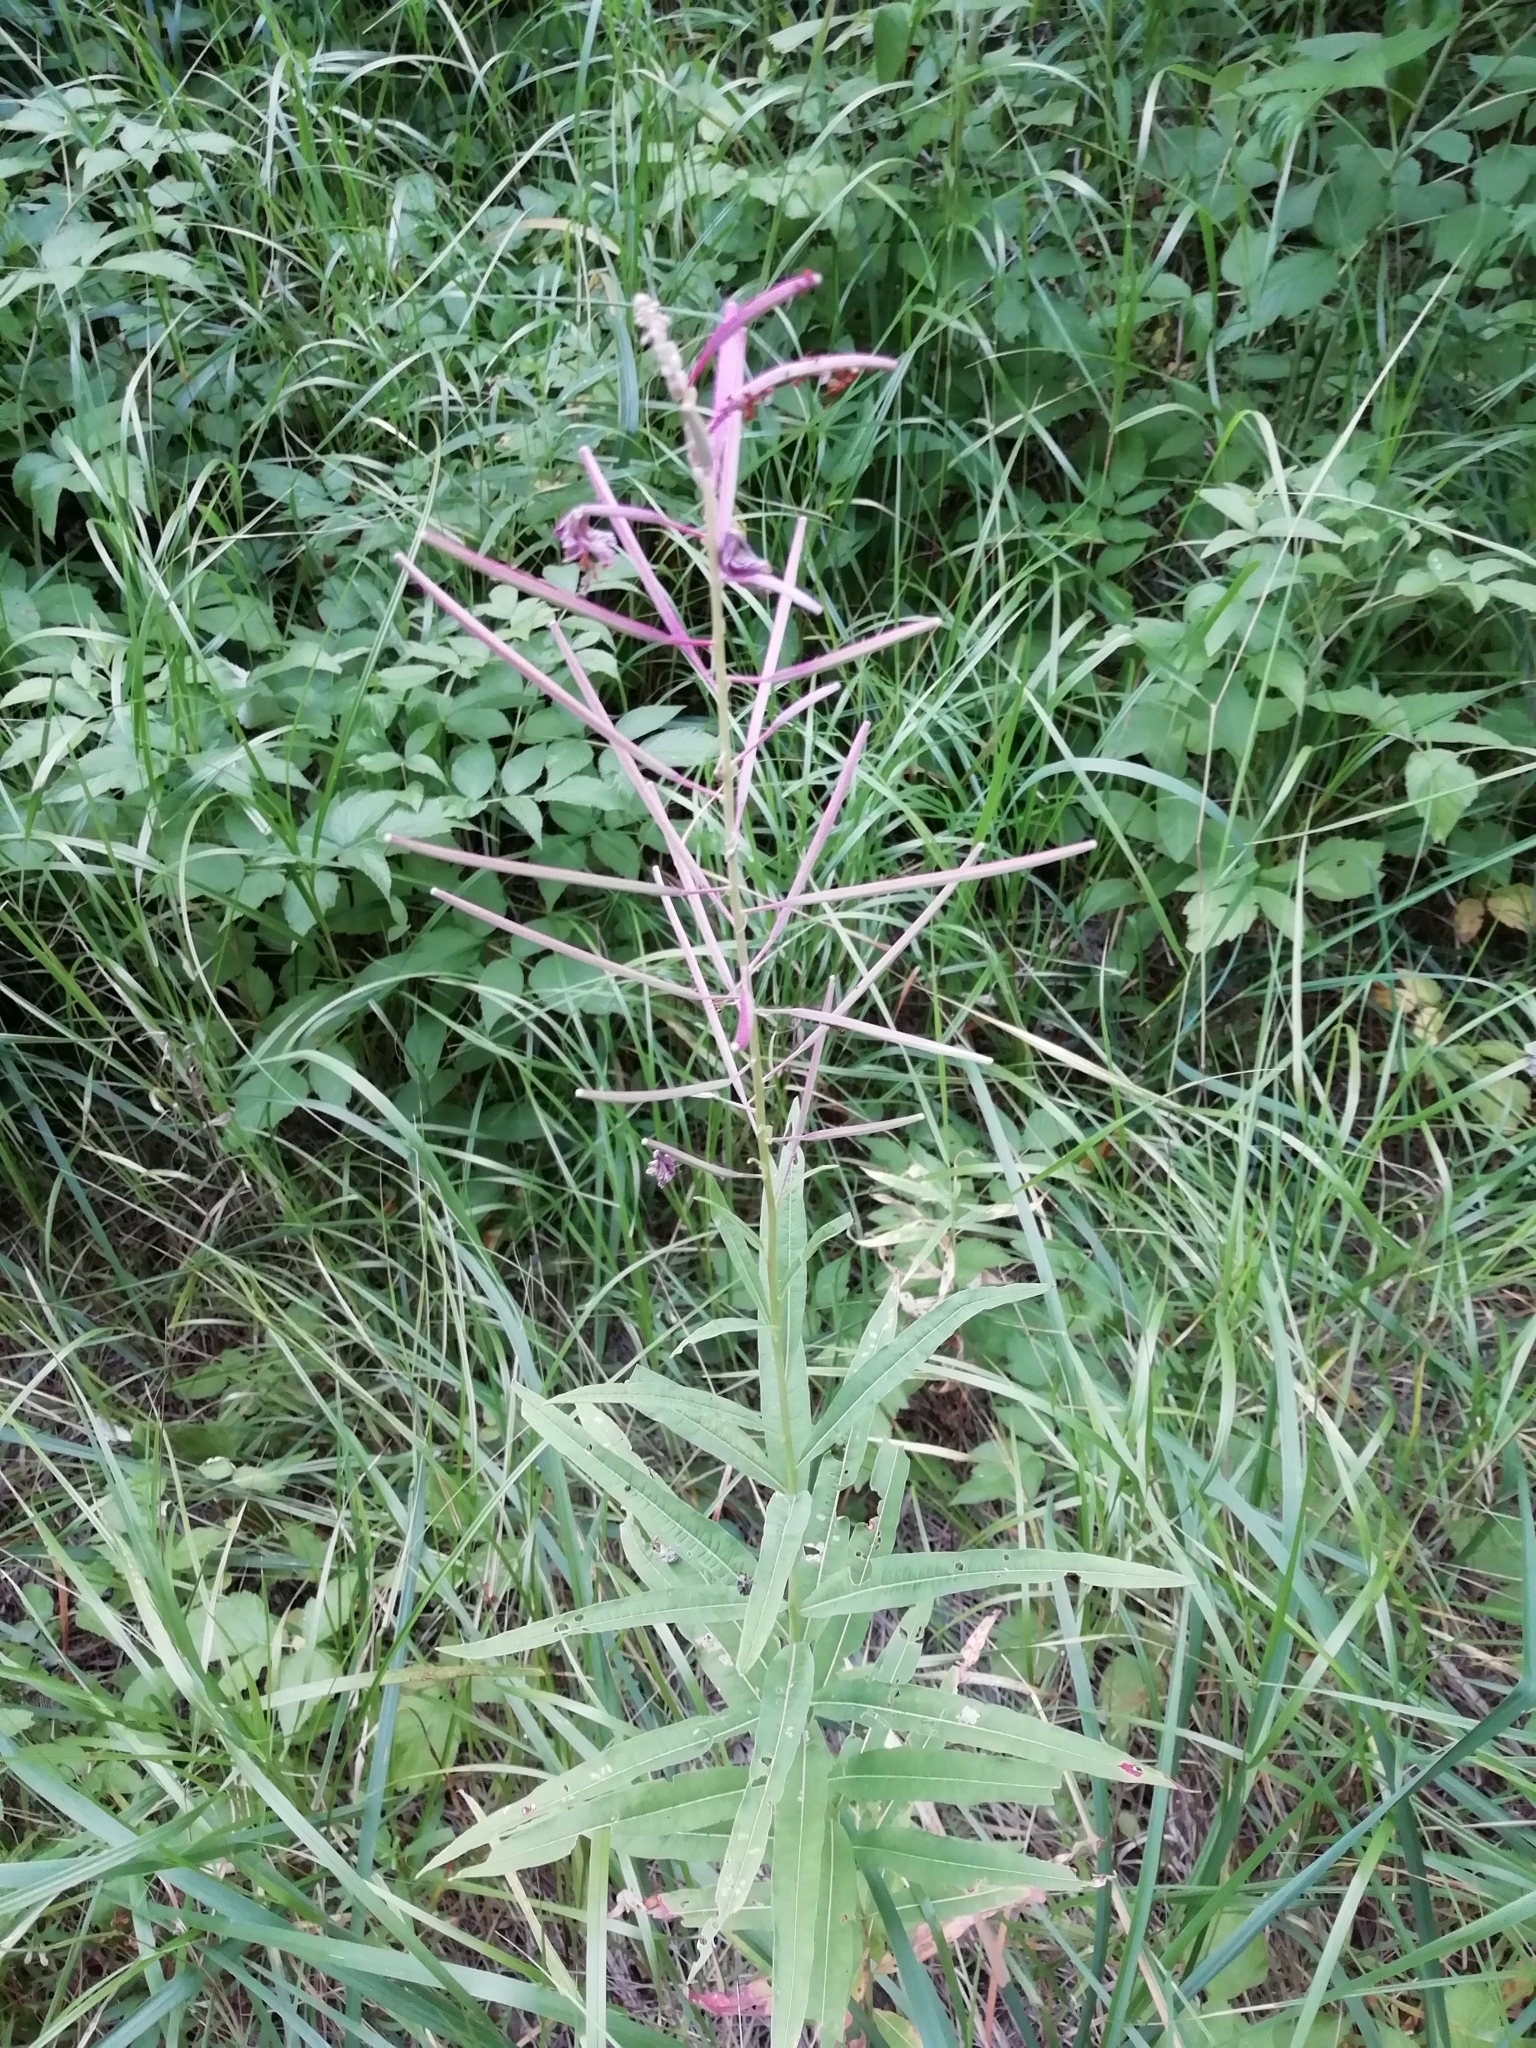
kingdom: Plantae
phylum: Tracheophyta
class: Magnoliopsida
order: Myrtales
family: Onagraceae
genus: Chamaenerion
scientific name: Chamaenerion angustifolium
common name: Fireweed
